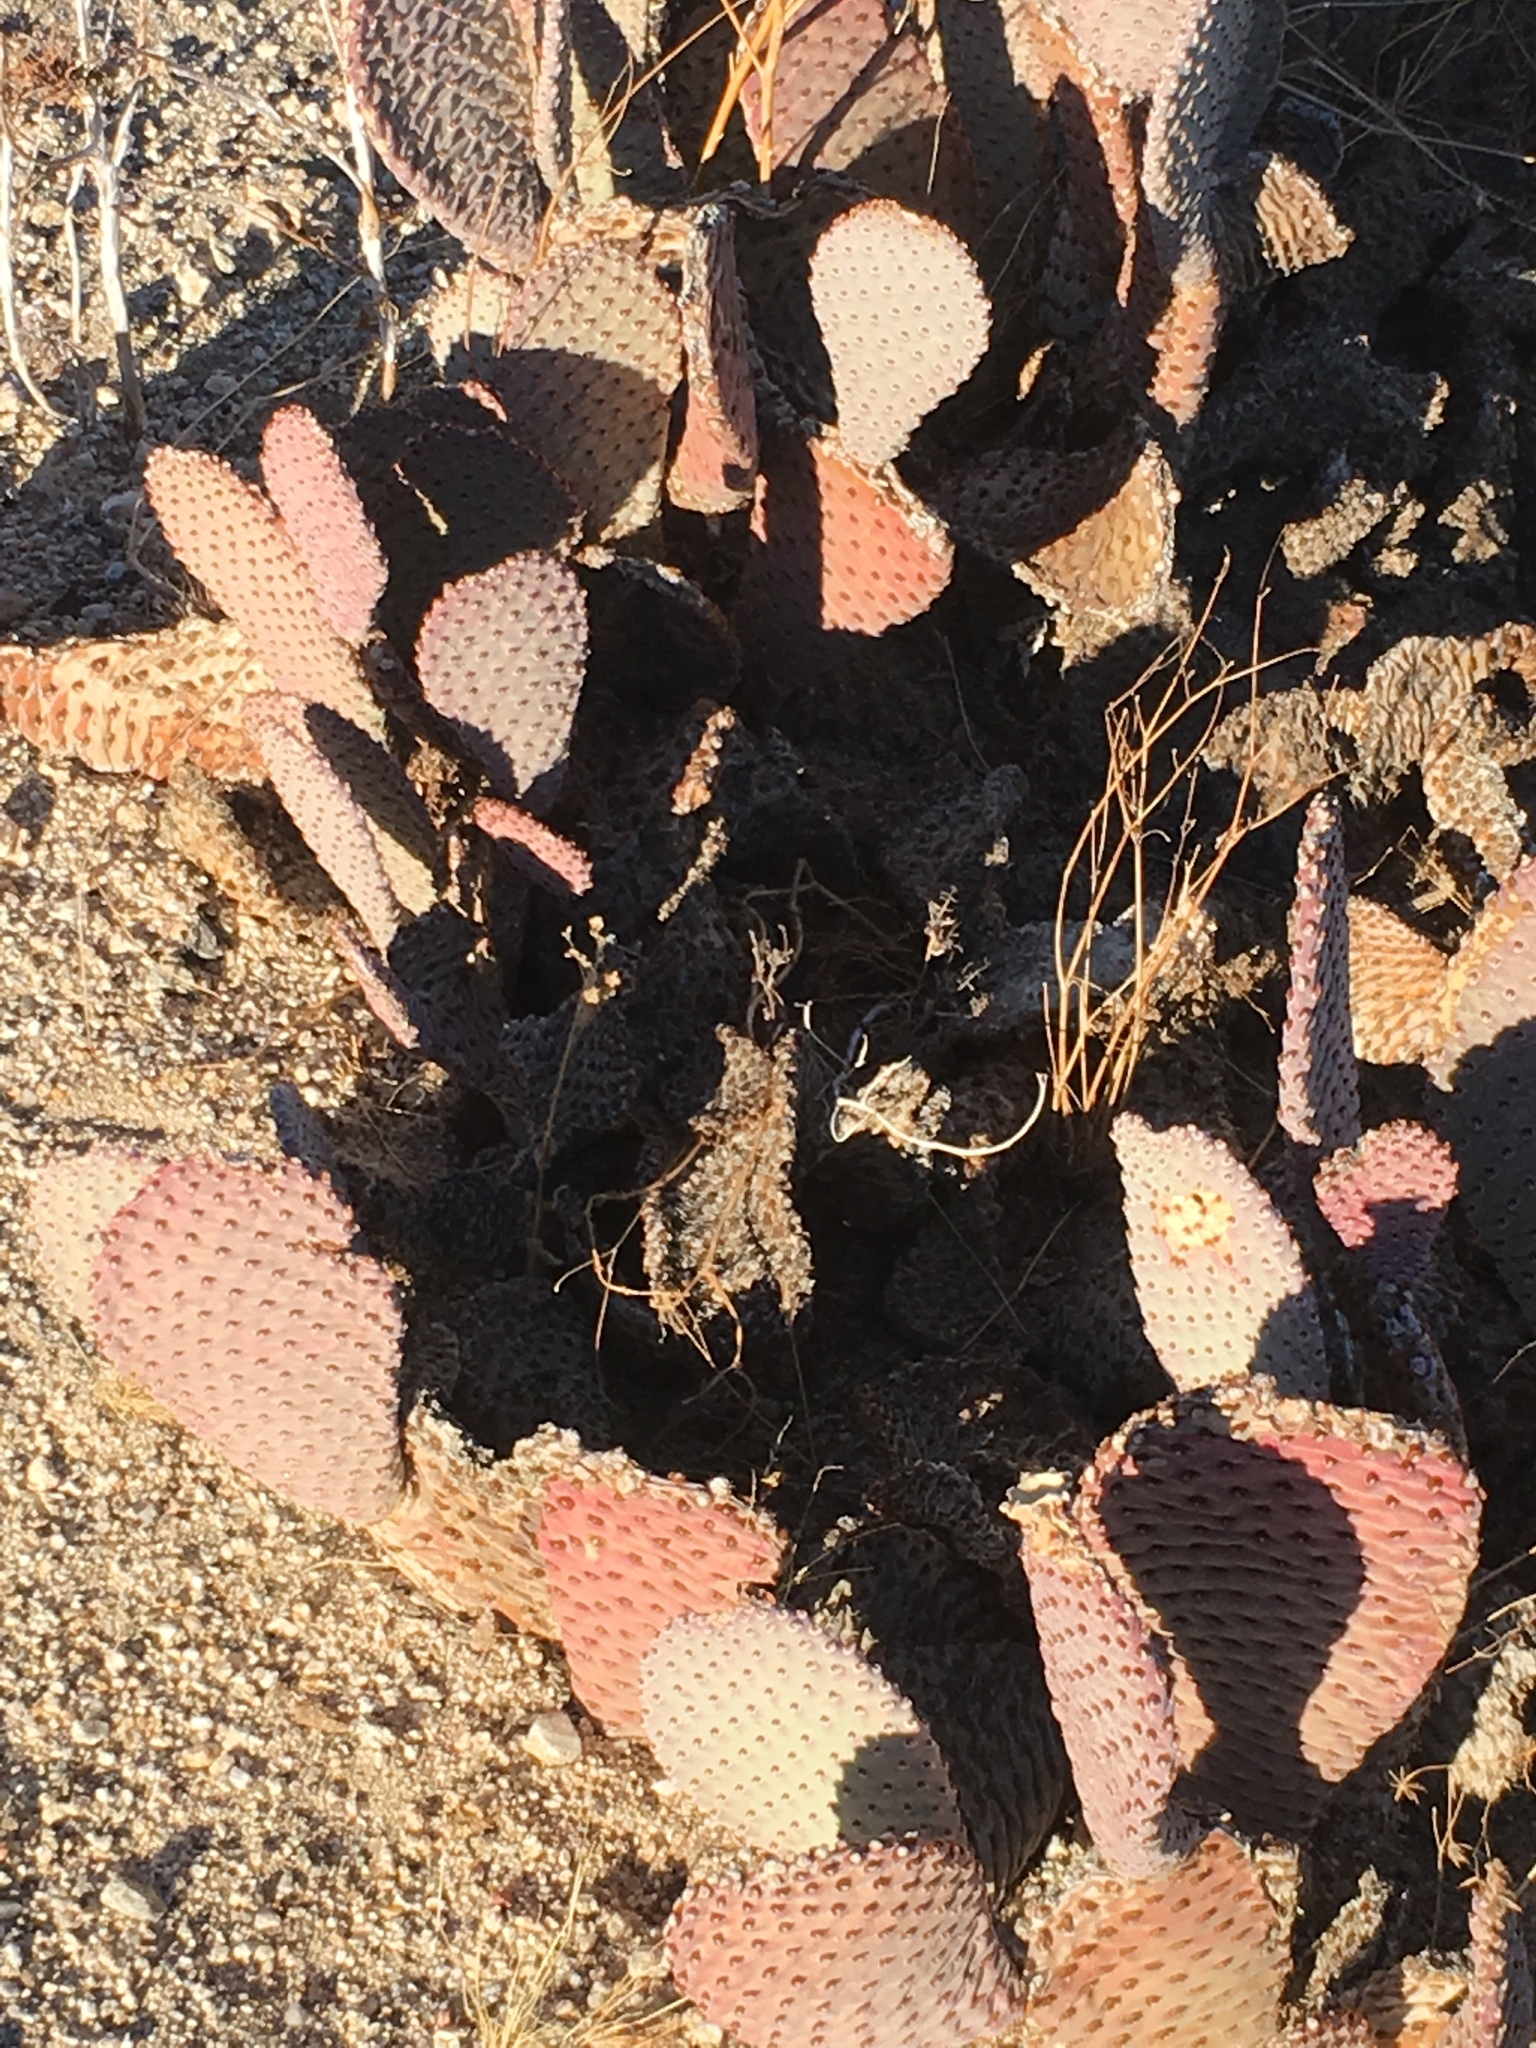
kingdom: Plantae
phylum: Tracheophyta
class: Magnoliopsida
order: Caryophyllales
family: Cactaceae
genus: Opuntia
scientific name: Opuntia basilaris
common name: Beavertail prickly-pear
